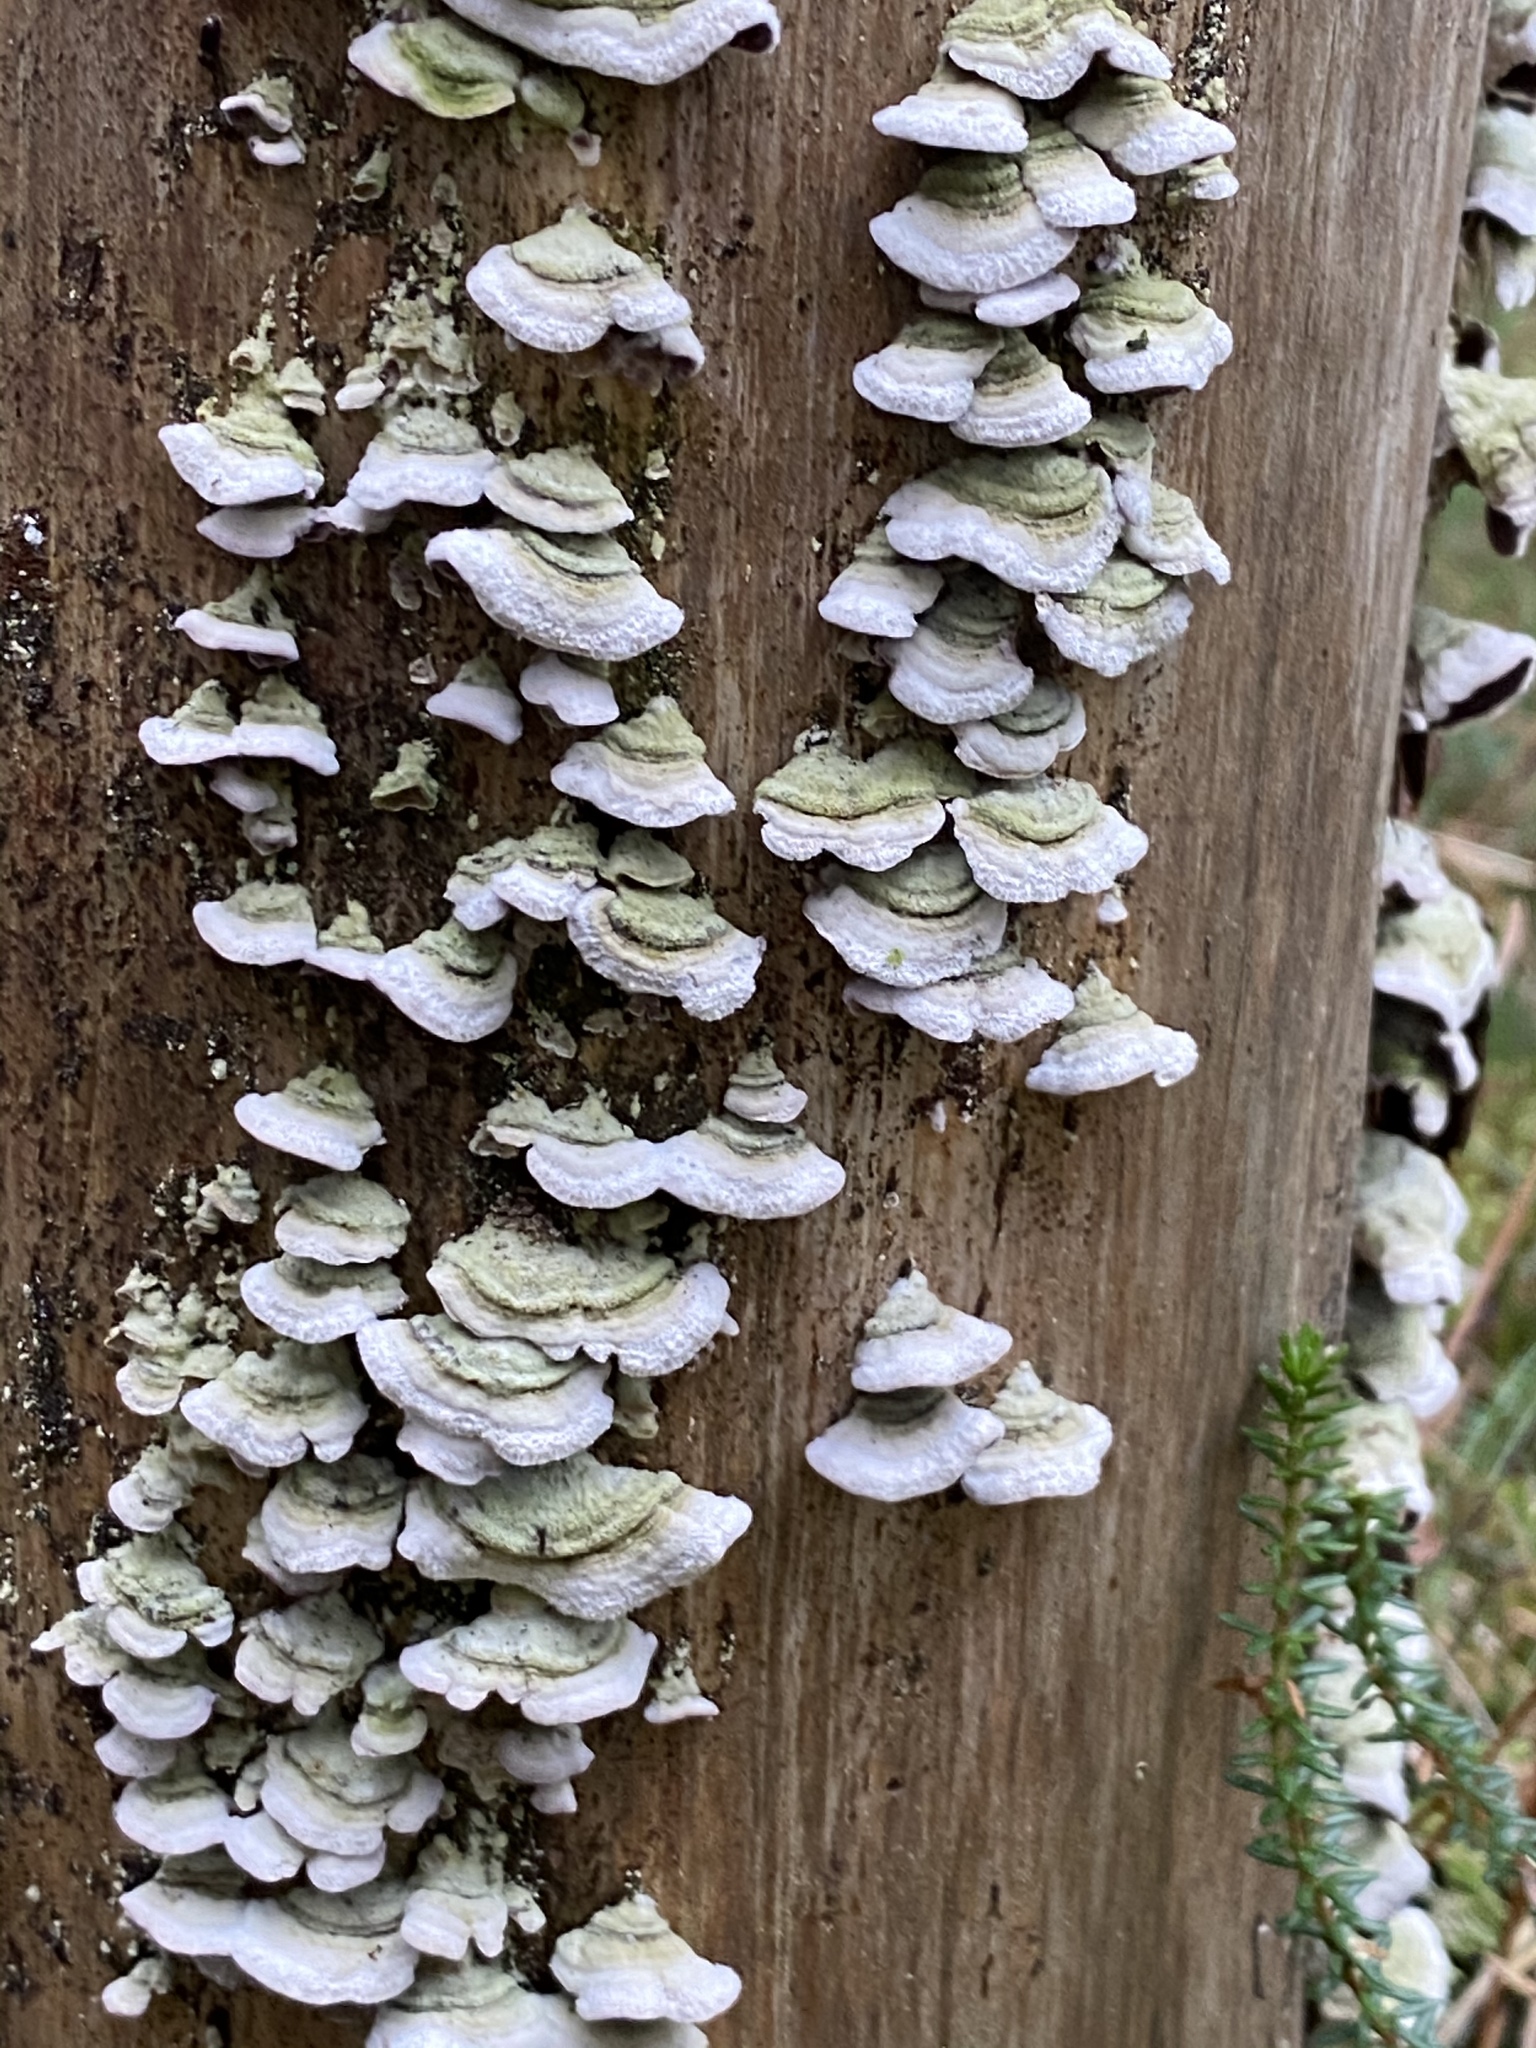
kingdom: Fungi
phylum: Basidiomycota
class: Agaricomycetes
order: Hymenochaetales
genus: Trichaptum
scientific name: Trichaptum abietinum
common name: Purplepore bracket
